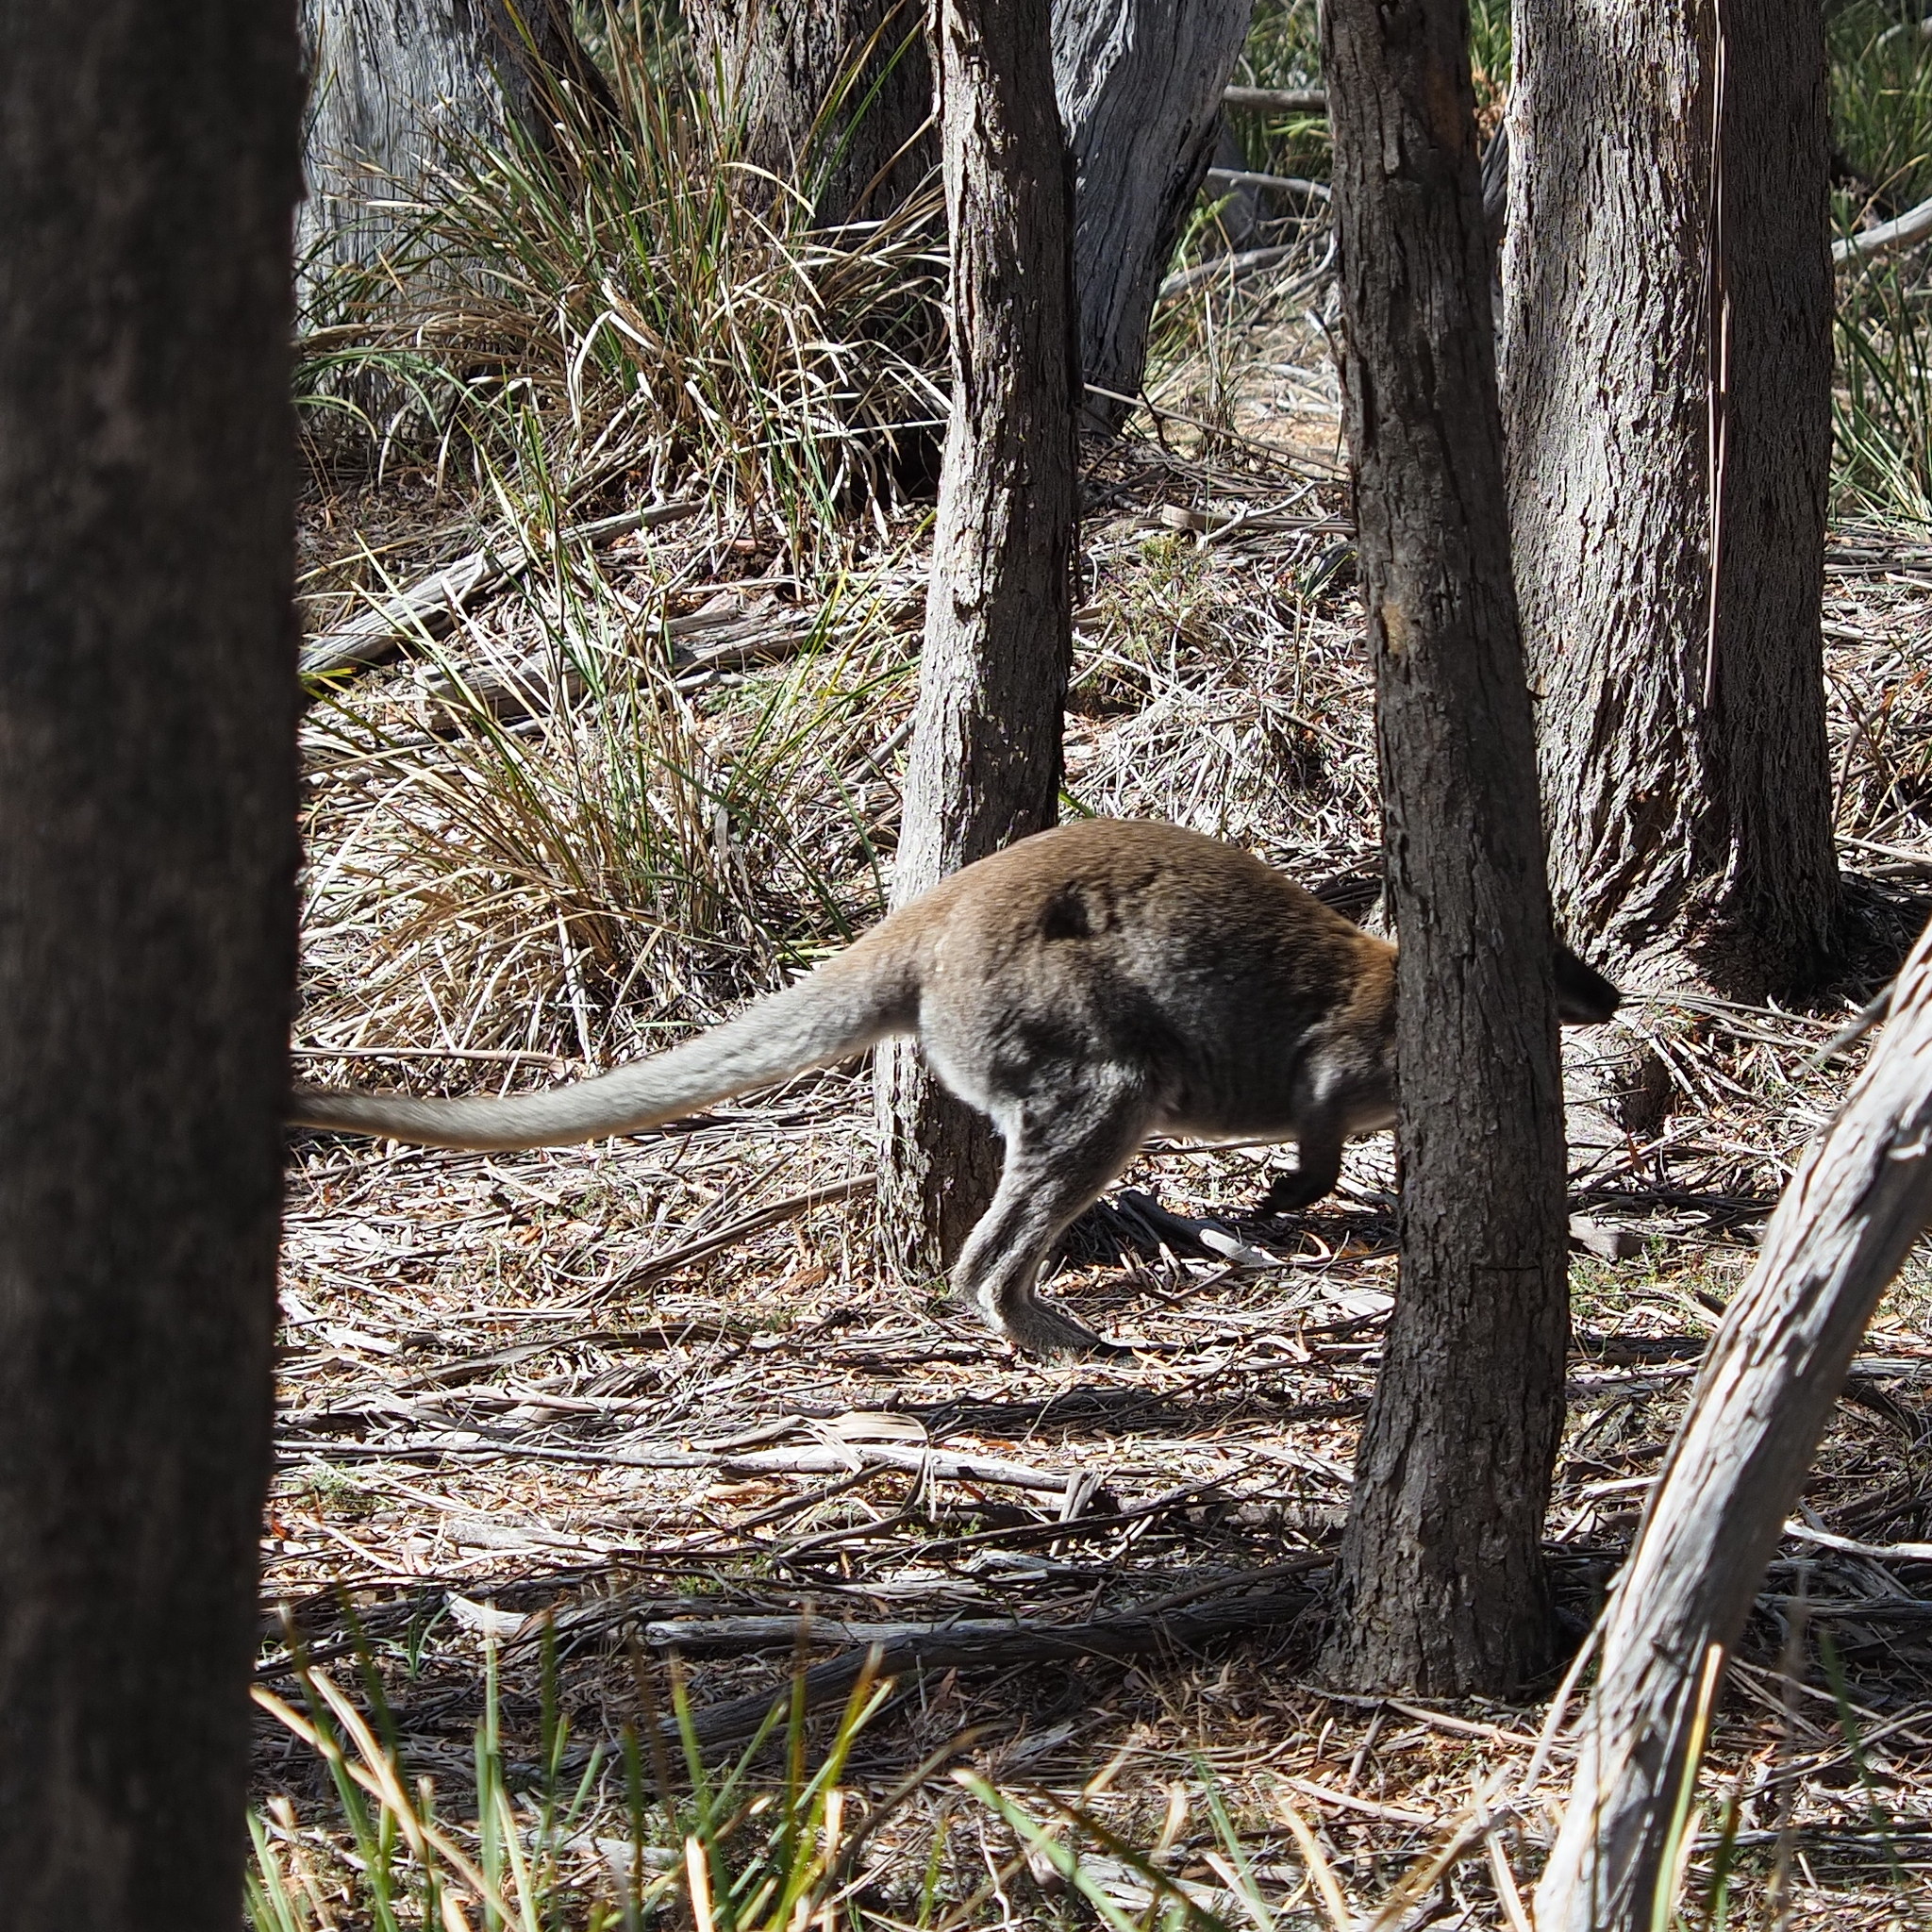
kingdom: Animalia
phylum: Chordata
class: Mammalia
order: Diprotodontia
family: Macropodidae
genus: Notamacropus
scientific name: Notamacropus rufogriseus
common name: Red-necked wallaby
